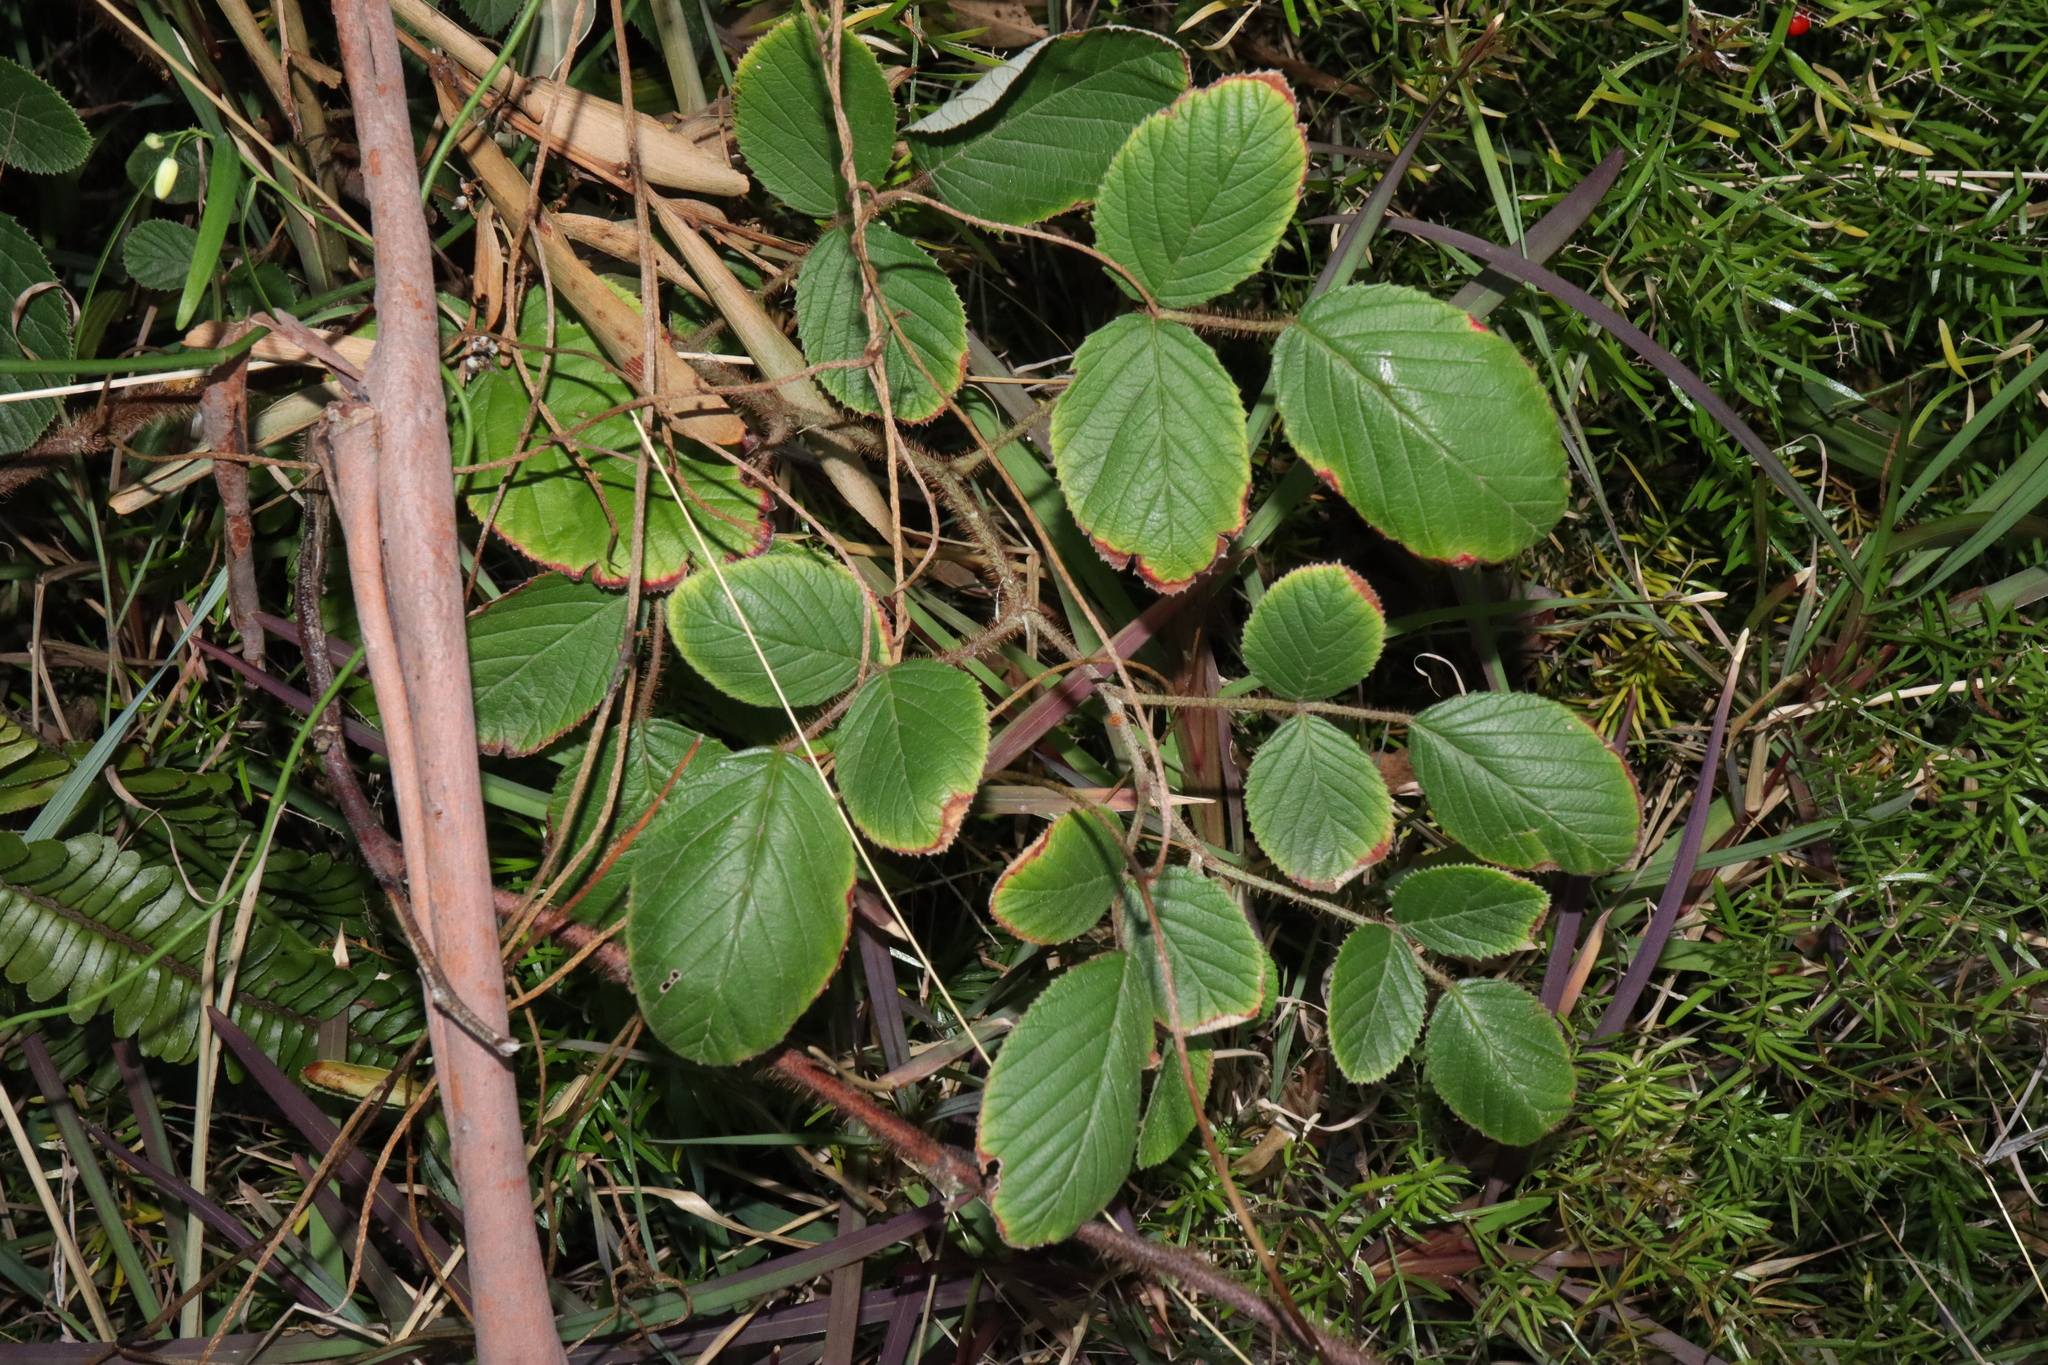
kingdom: Plantae
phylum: Tracheophyta
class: Magnoliopsida
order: Rosales
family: Rosaceae
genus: Rubus
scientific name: Rubus ellipticus
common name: Cheeseberry
